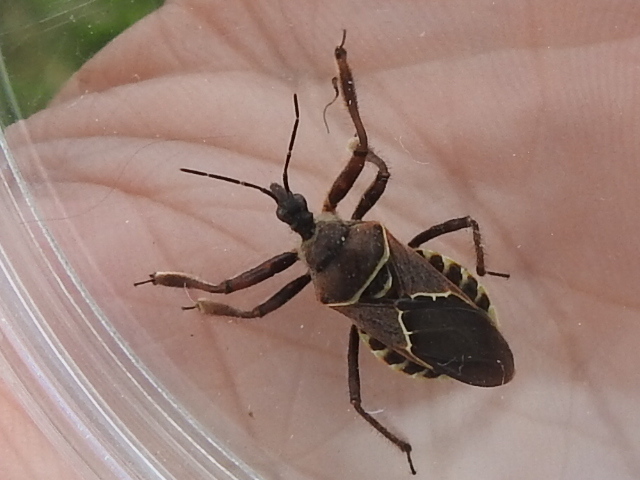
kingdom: Animalia
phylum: Arthropoda
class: Insecta
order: Hemiptera
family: Reduviidae
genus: Apiomerus
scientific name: Apiomerus spissipes
